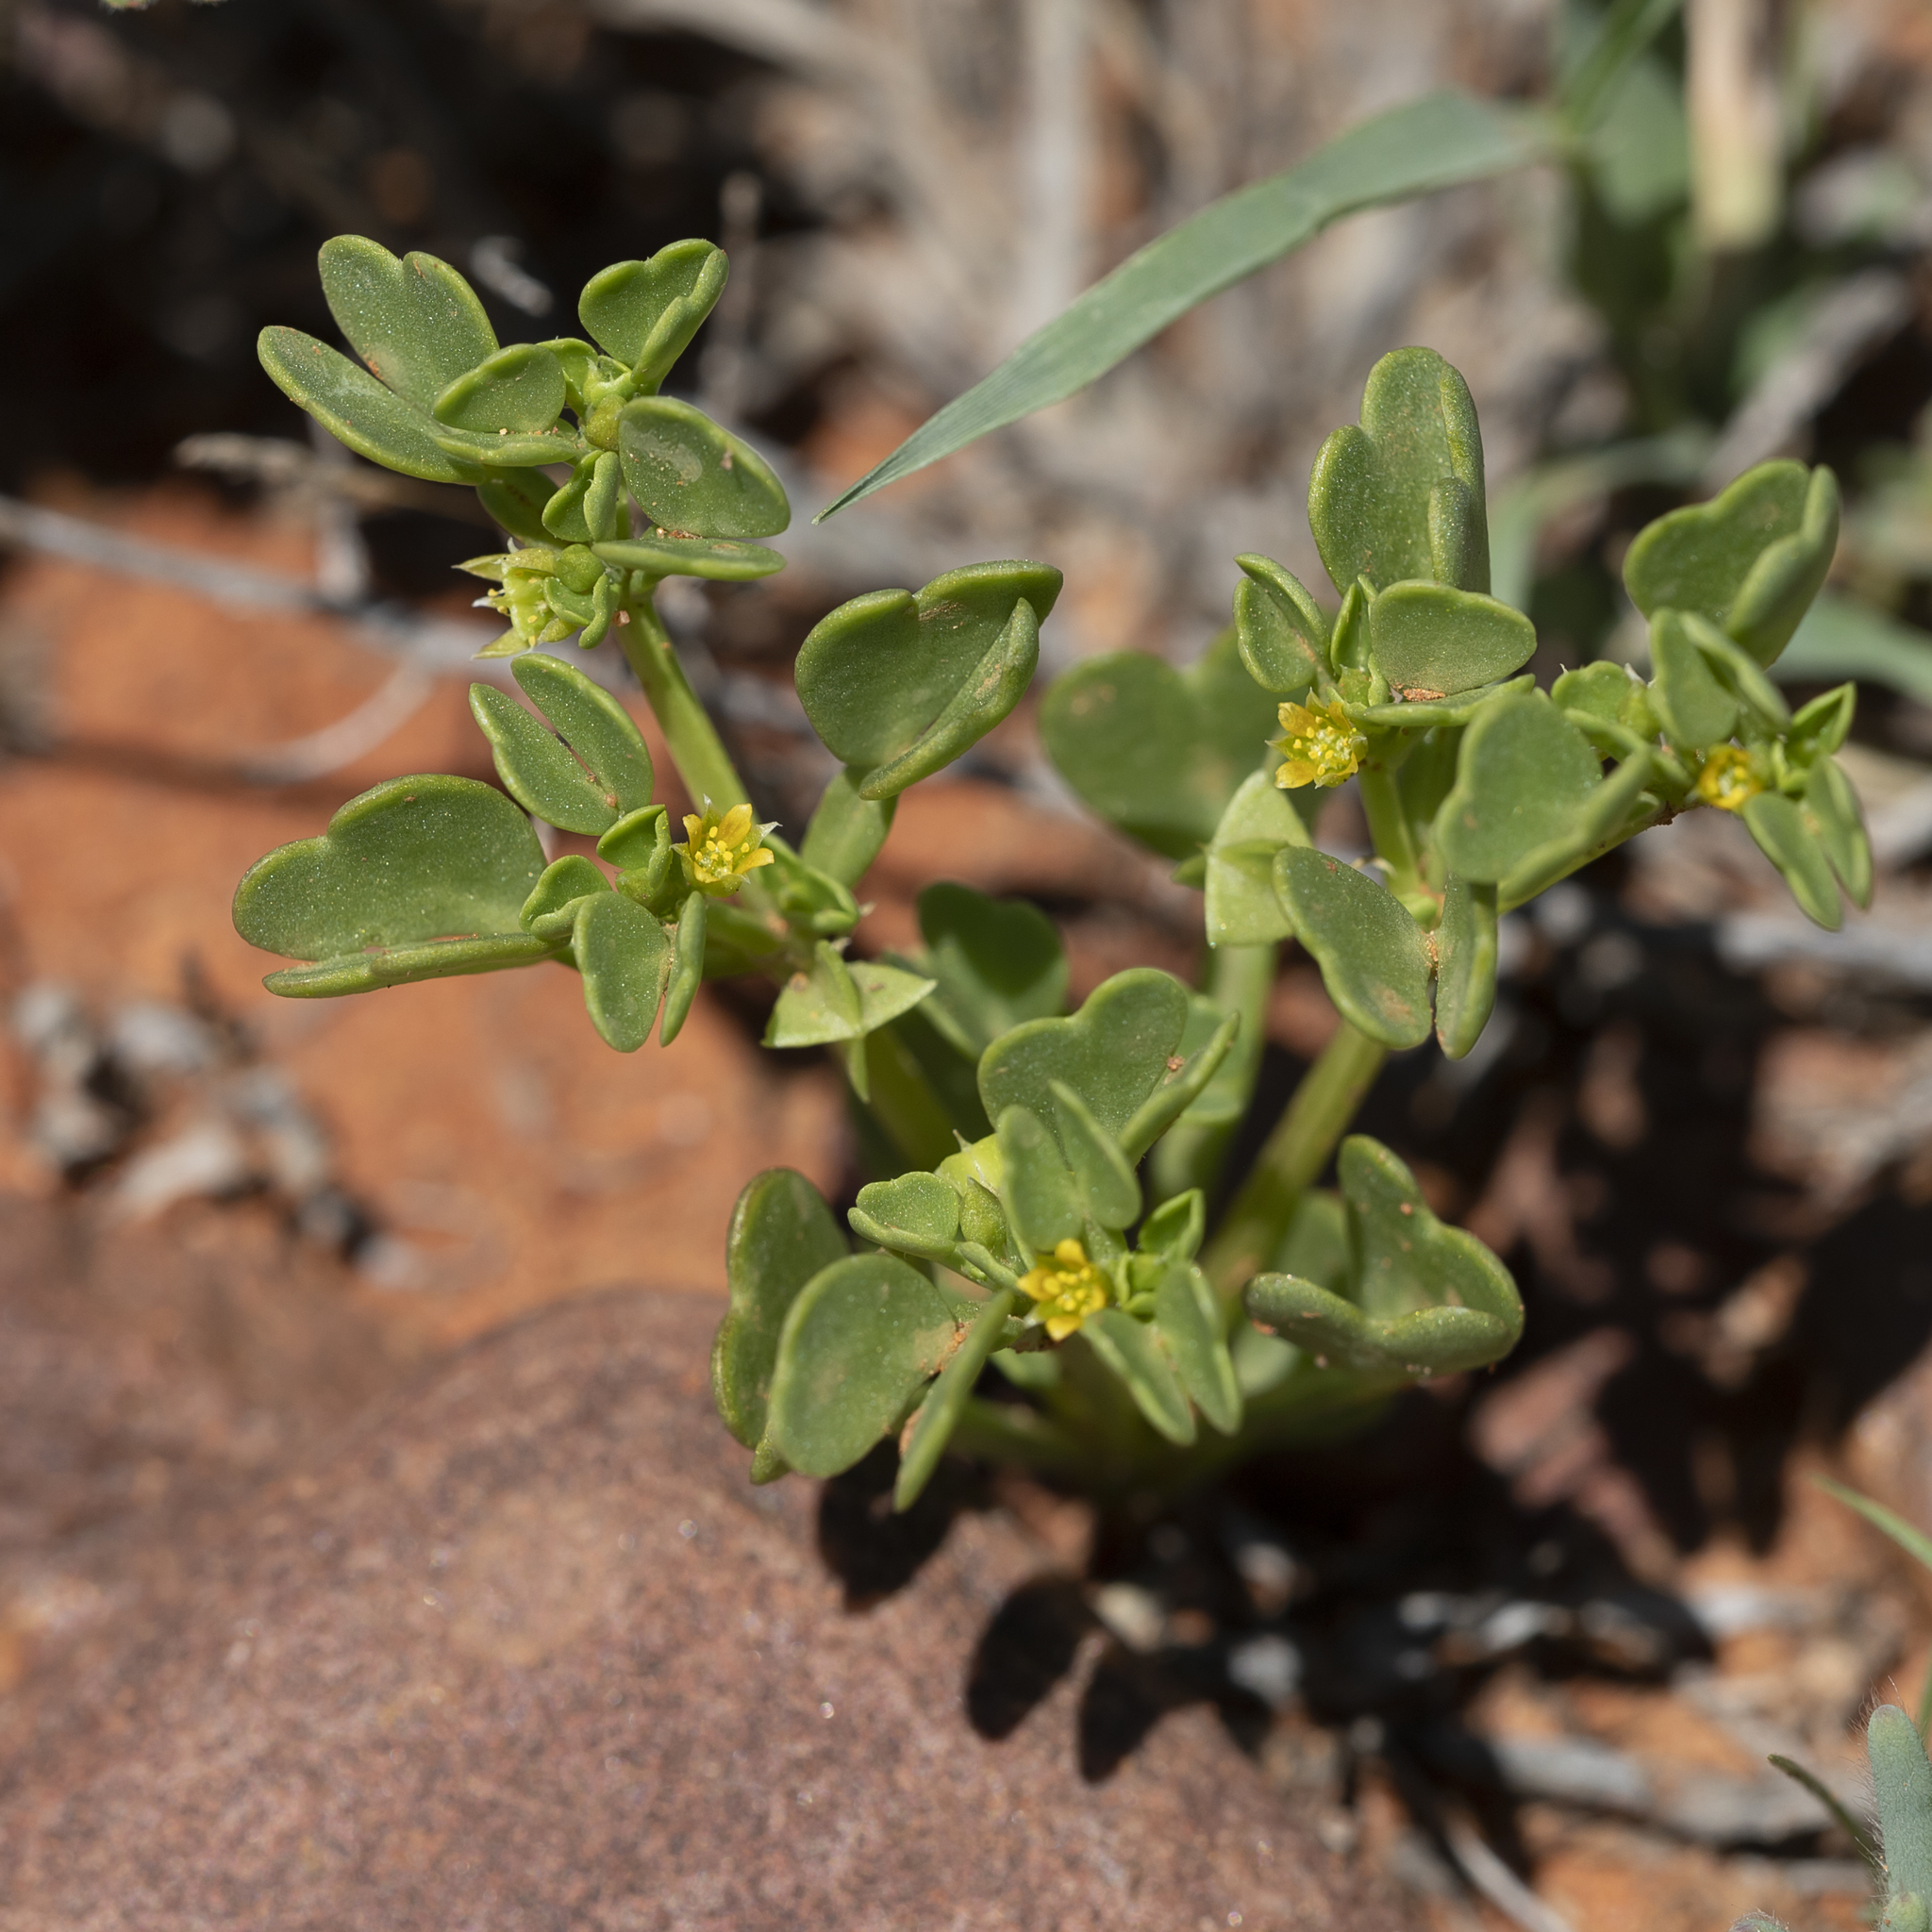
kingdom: Plantae
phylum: Tracheophyta
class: Magnoliopsida
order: Zygophyllales
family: Zygophyllaceae
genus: Roepera
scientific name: Roepera emarginata
